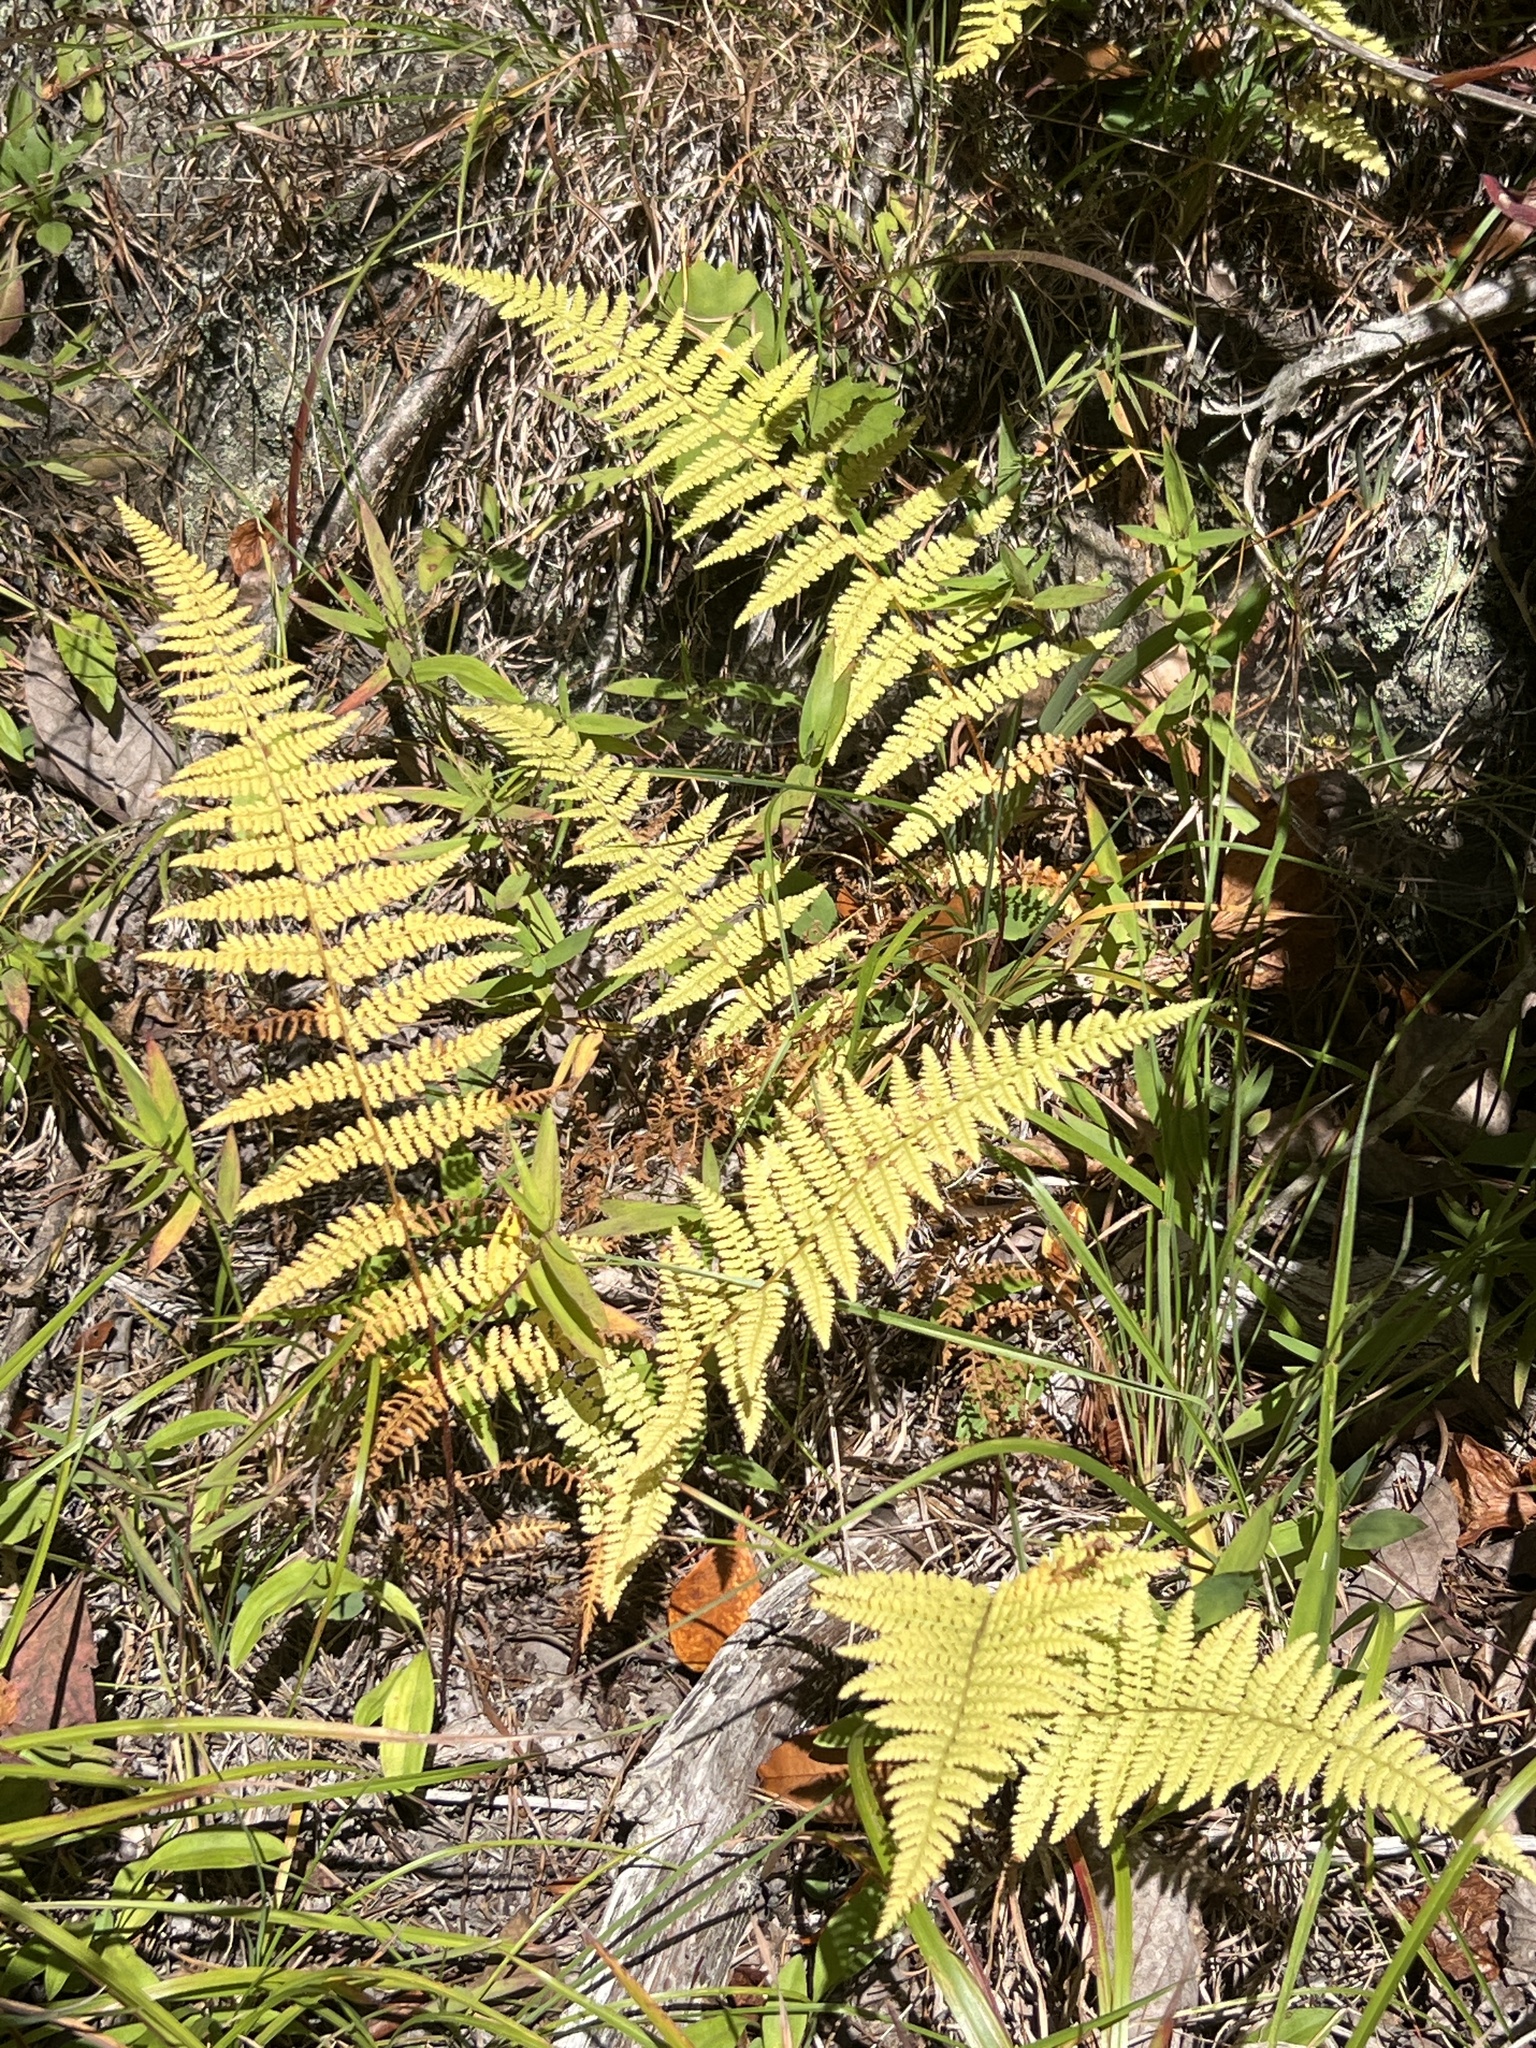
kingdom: Plantae
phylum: Tracheophyta
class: Polypodiopsida
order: Polypodiales
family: Dennstaedtiaceae
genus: Sitobolium
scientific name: Sitobolium punctilobum
